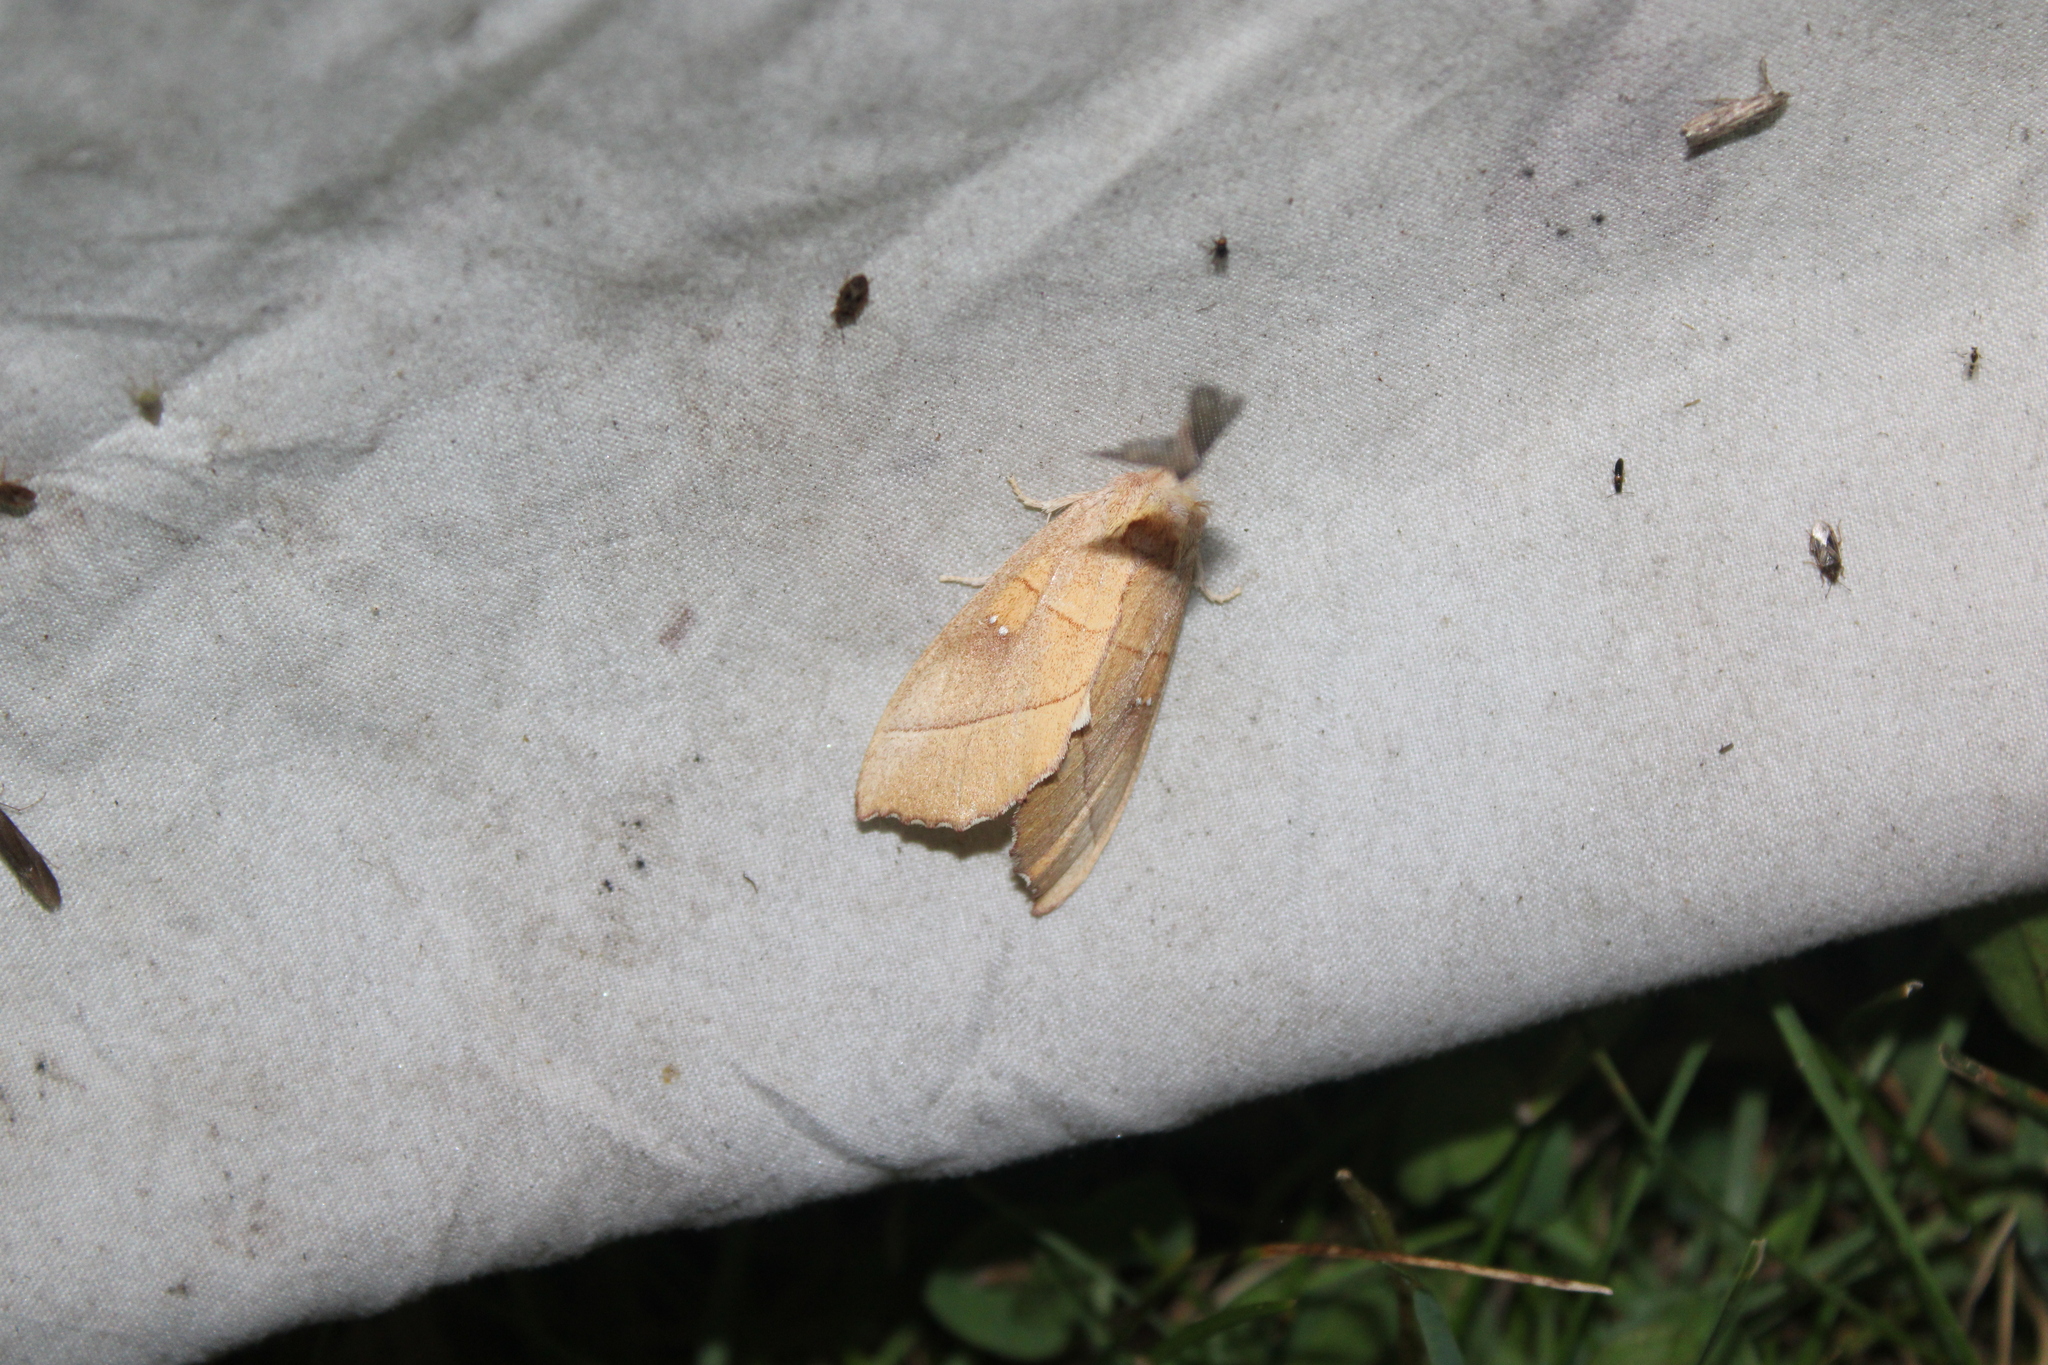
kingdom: Animalia
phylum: Arthropoda
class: Insecta
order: Lepidoptera
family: Notodontidae
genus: Nadata
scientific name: Nadata gibbosa
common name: White-dotted prominent
